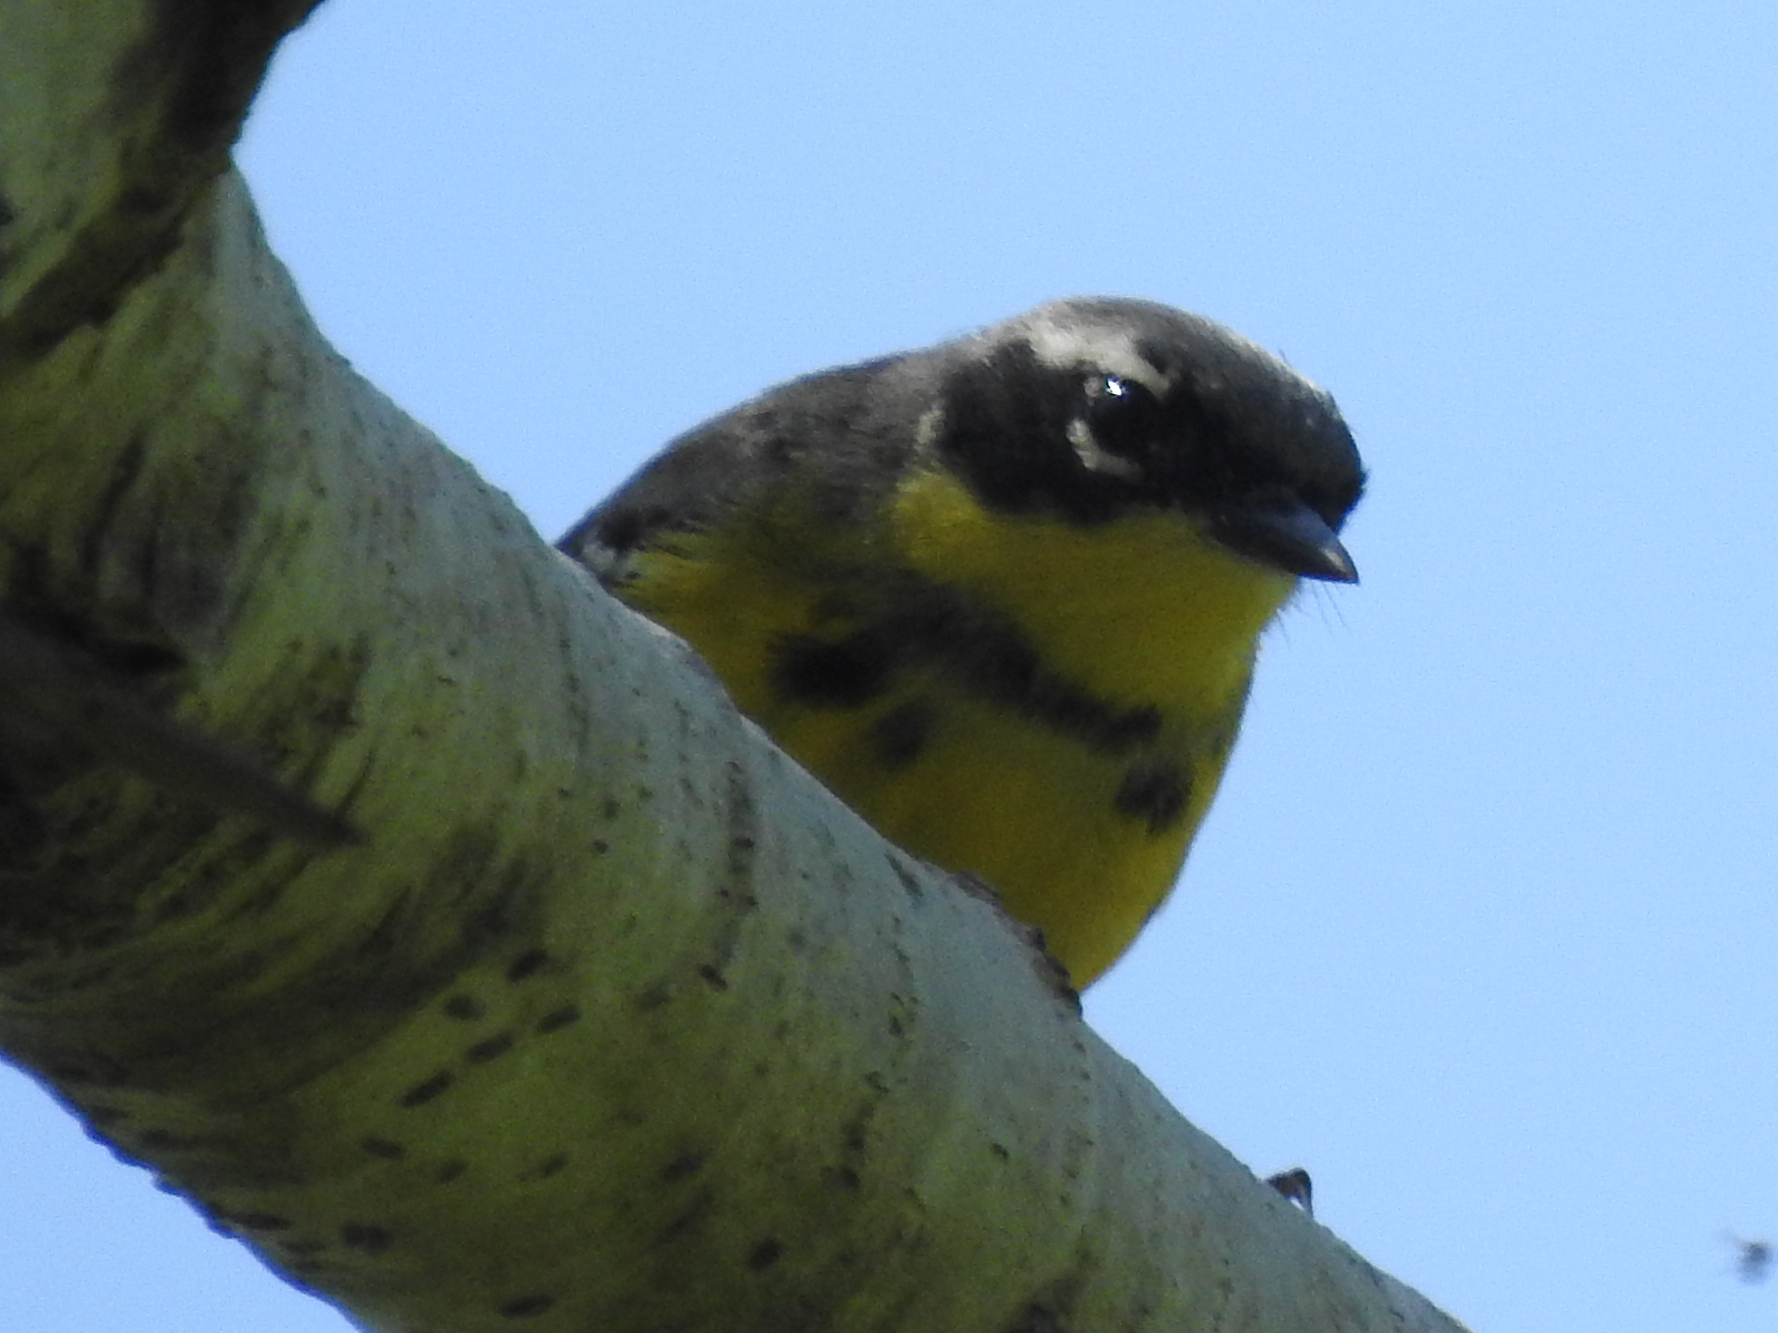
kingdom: Animalia
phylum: Chordata
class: Aves
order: Passeriformes
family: Parulidae
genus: Setophaga
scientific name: Setophaga magnolia
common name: Magnolia warbler
